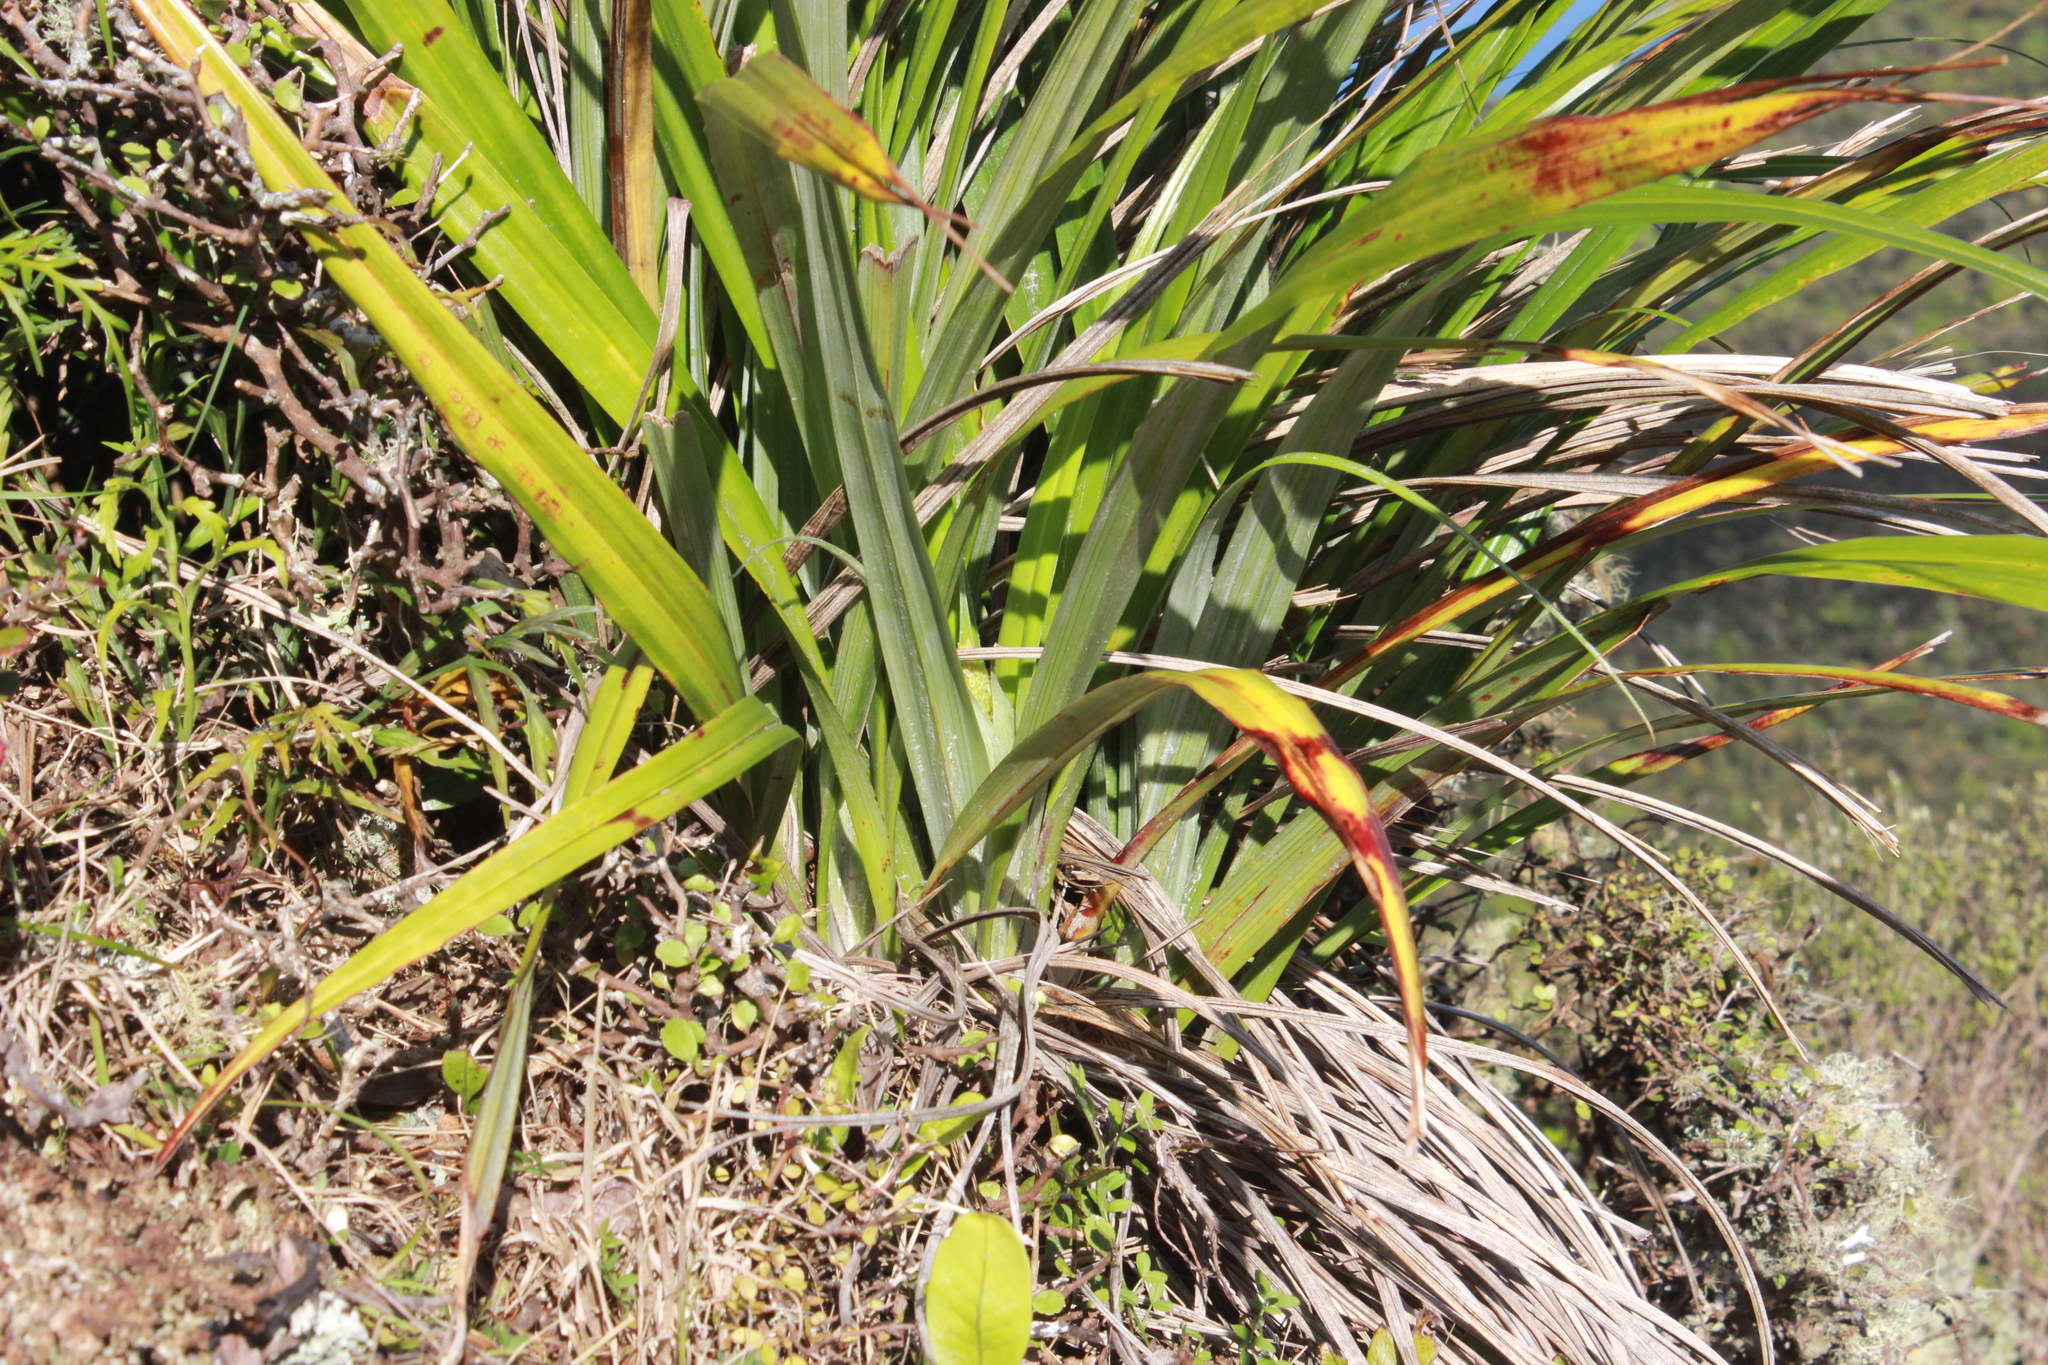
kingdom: Plantae
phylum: Tracheophyta
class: Liliopsida
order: Asparagales
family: Asteliaceae
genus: Astelia
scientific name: Astelia solandri
